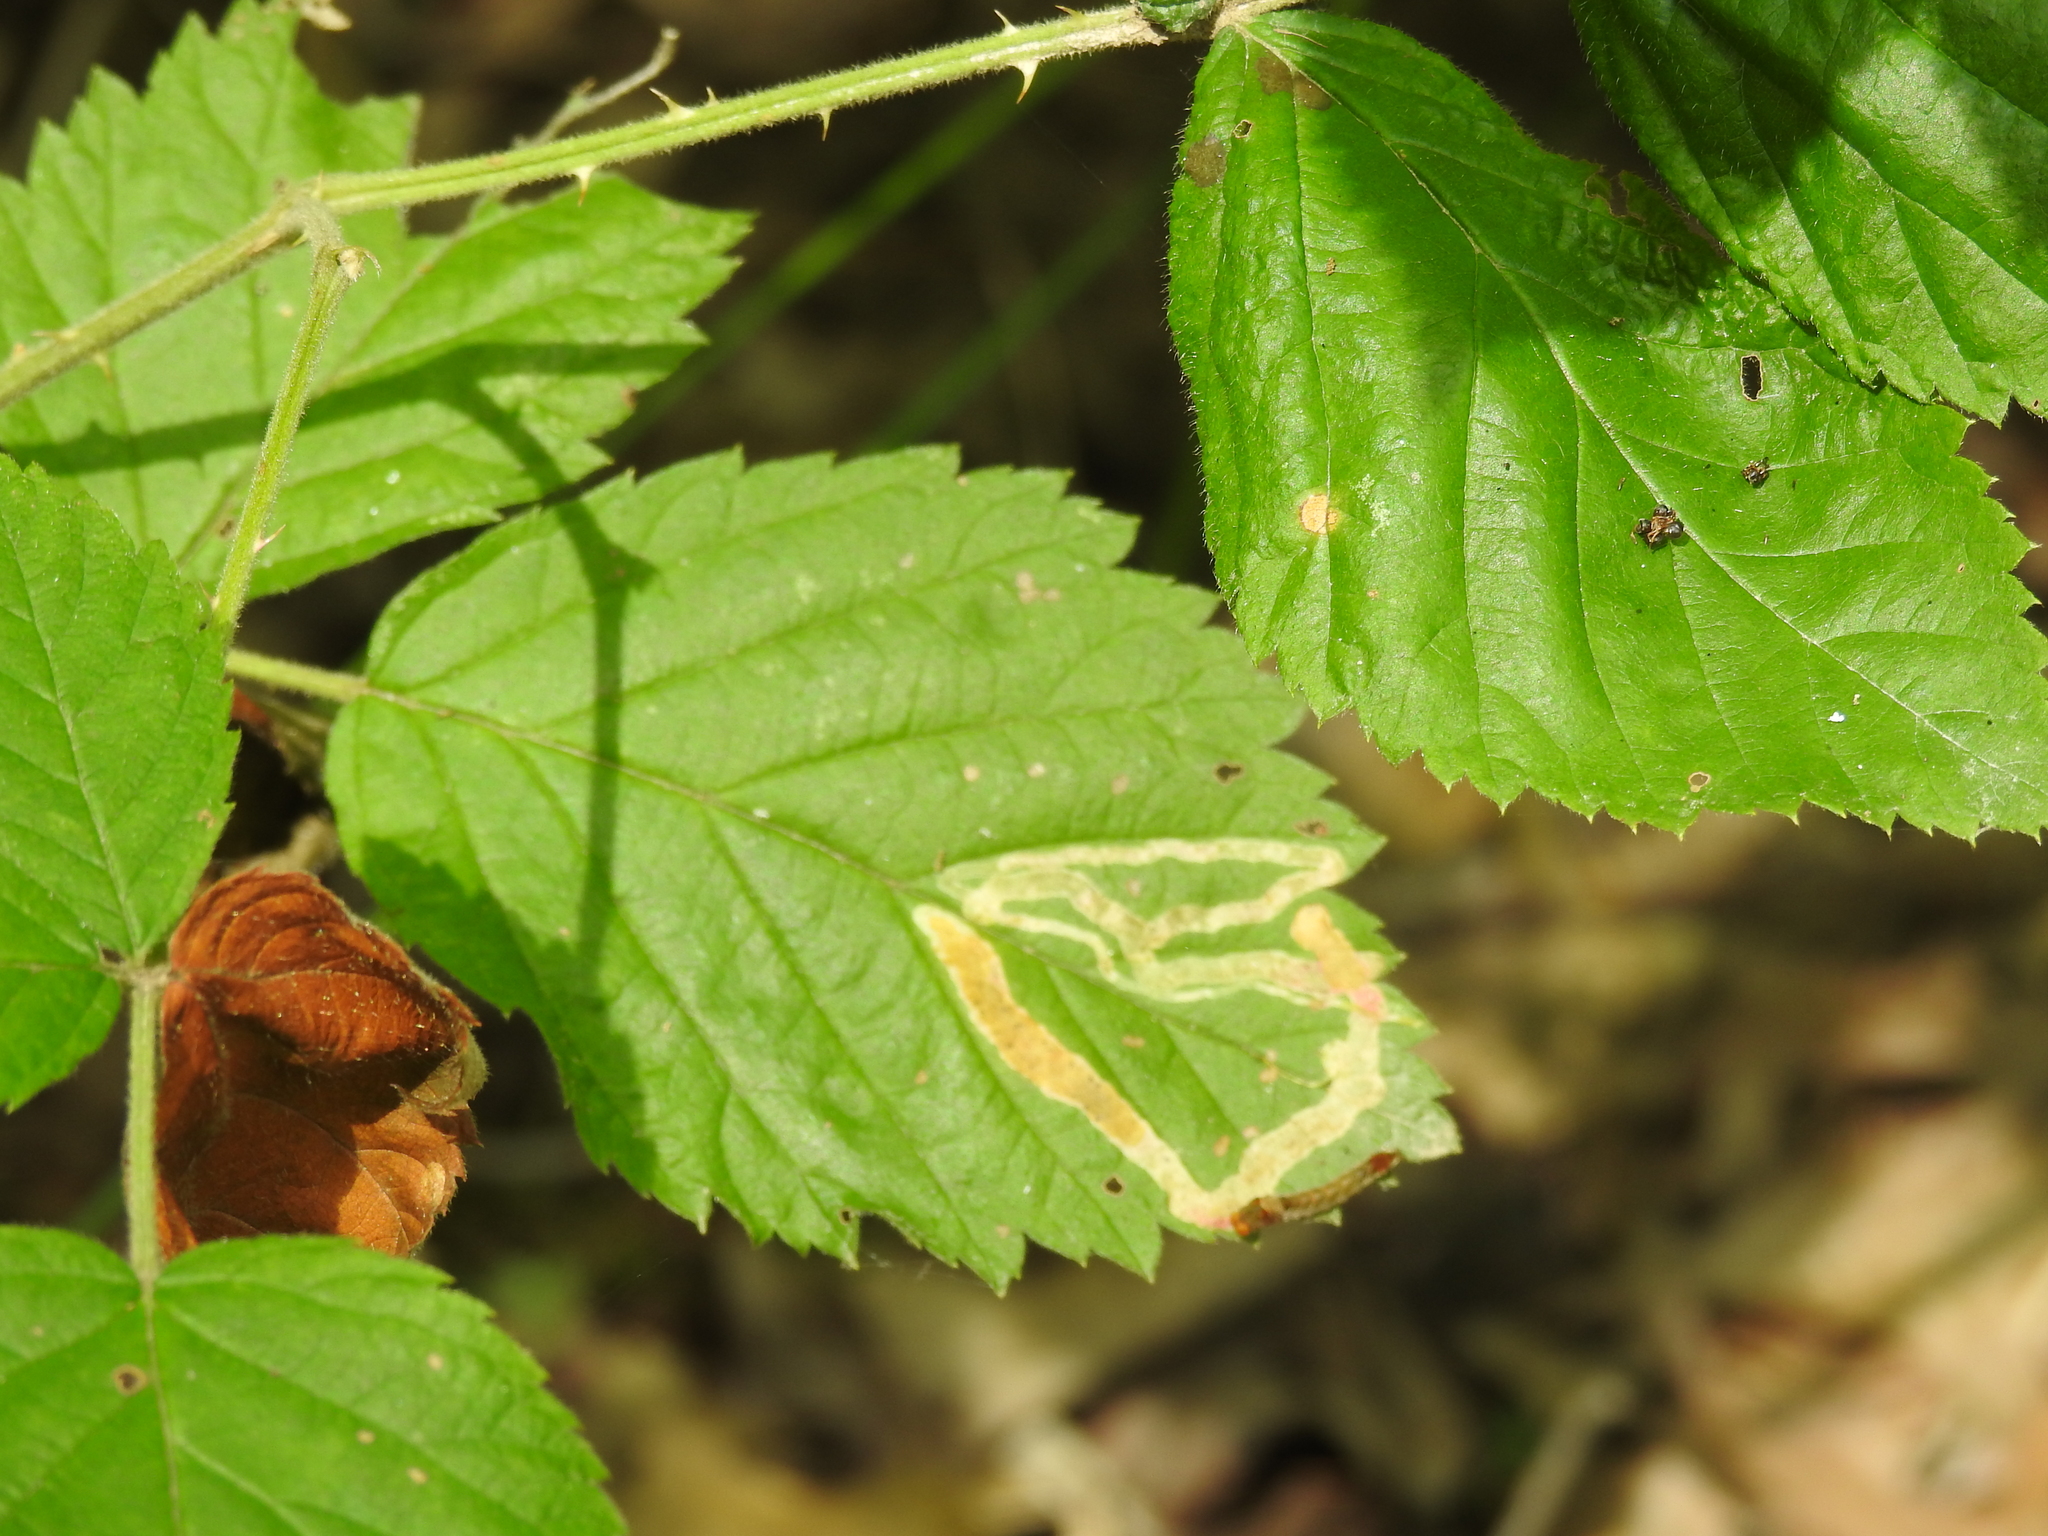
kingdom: Animalia
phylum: Arthropoda
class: Insecta
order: Diptera
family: Agromyzidae
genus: Agromyza
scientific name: Agromyza vockerothi
